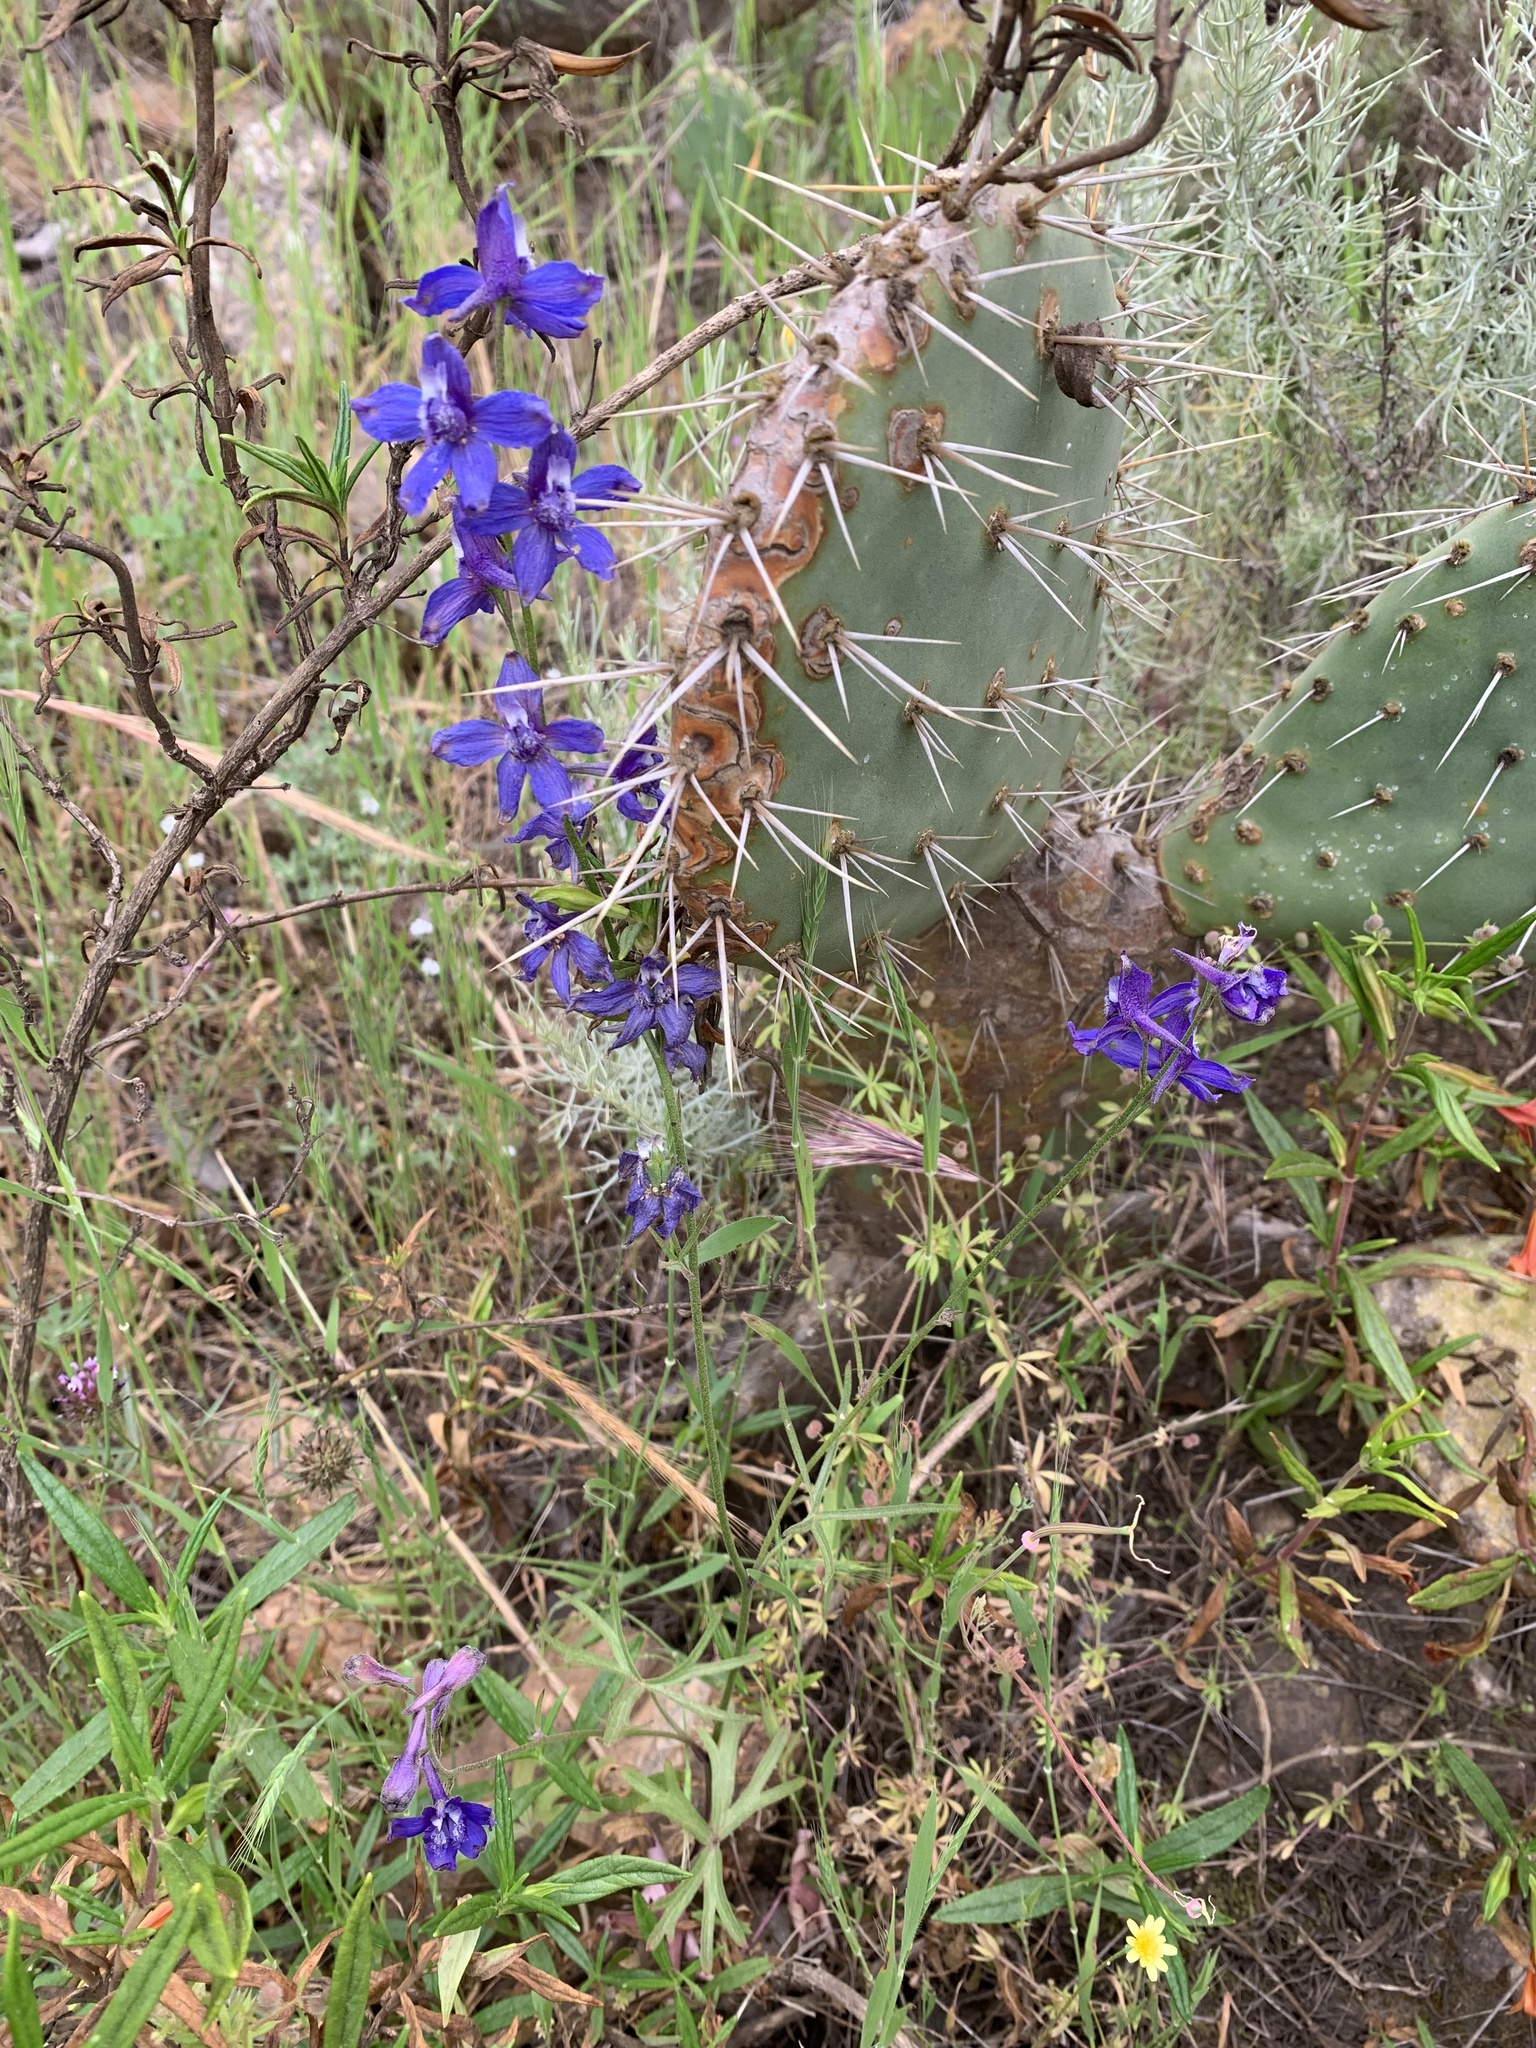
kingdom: Plantae
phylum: Tracheophyta
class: Magnoliopsida
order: Ranunculales
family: Ranunculaceae
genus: Delphinium
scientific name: Delphinium parryi
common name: Parry's larkspur
